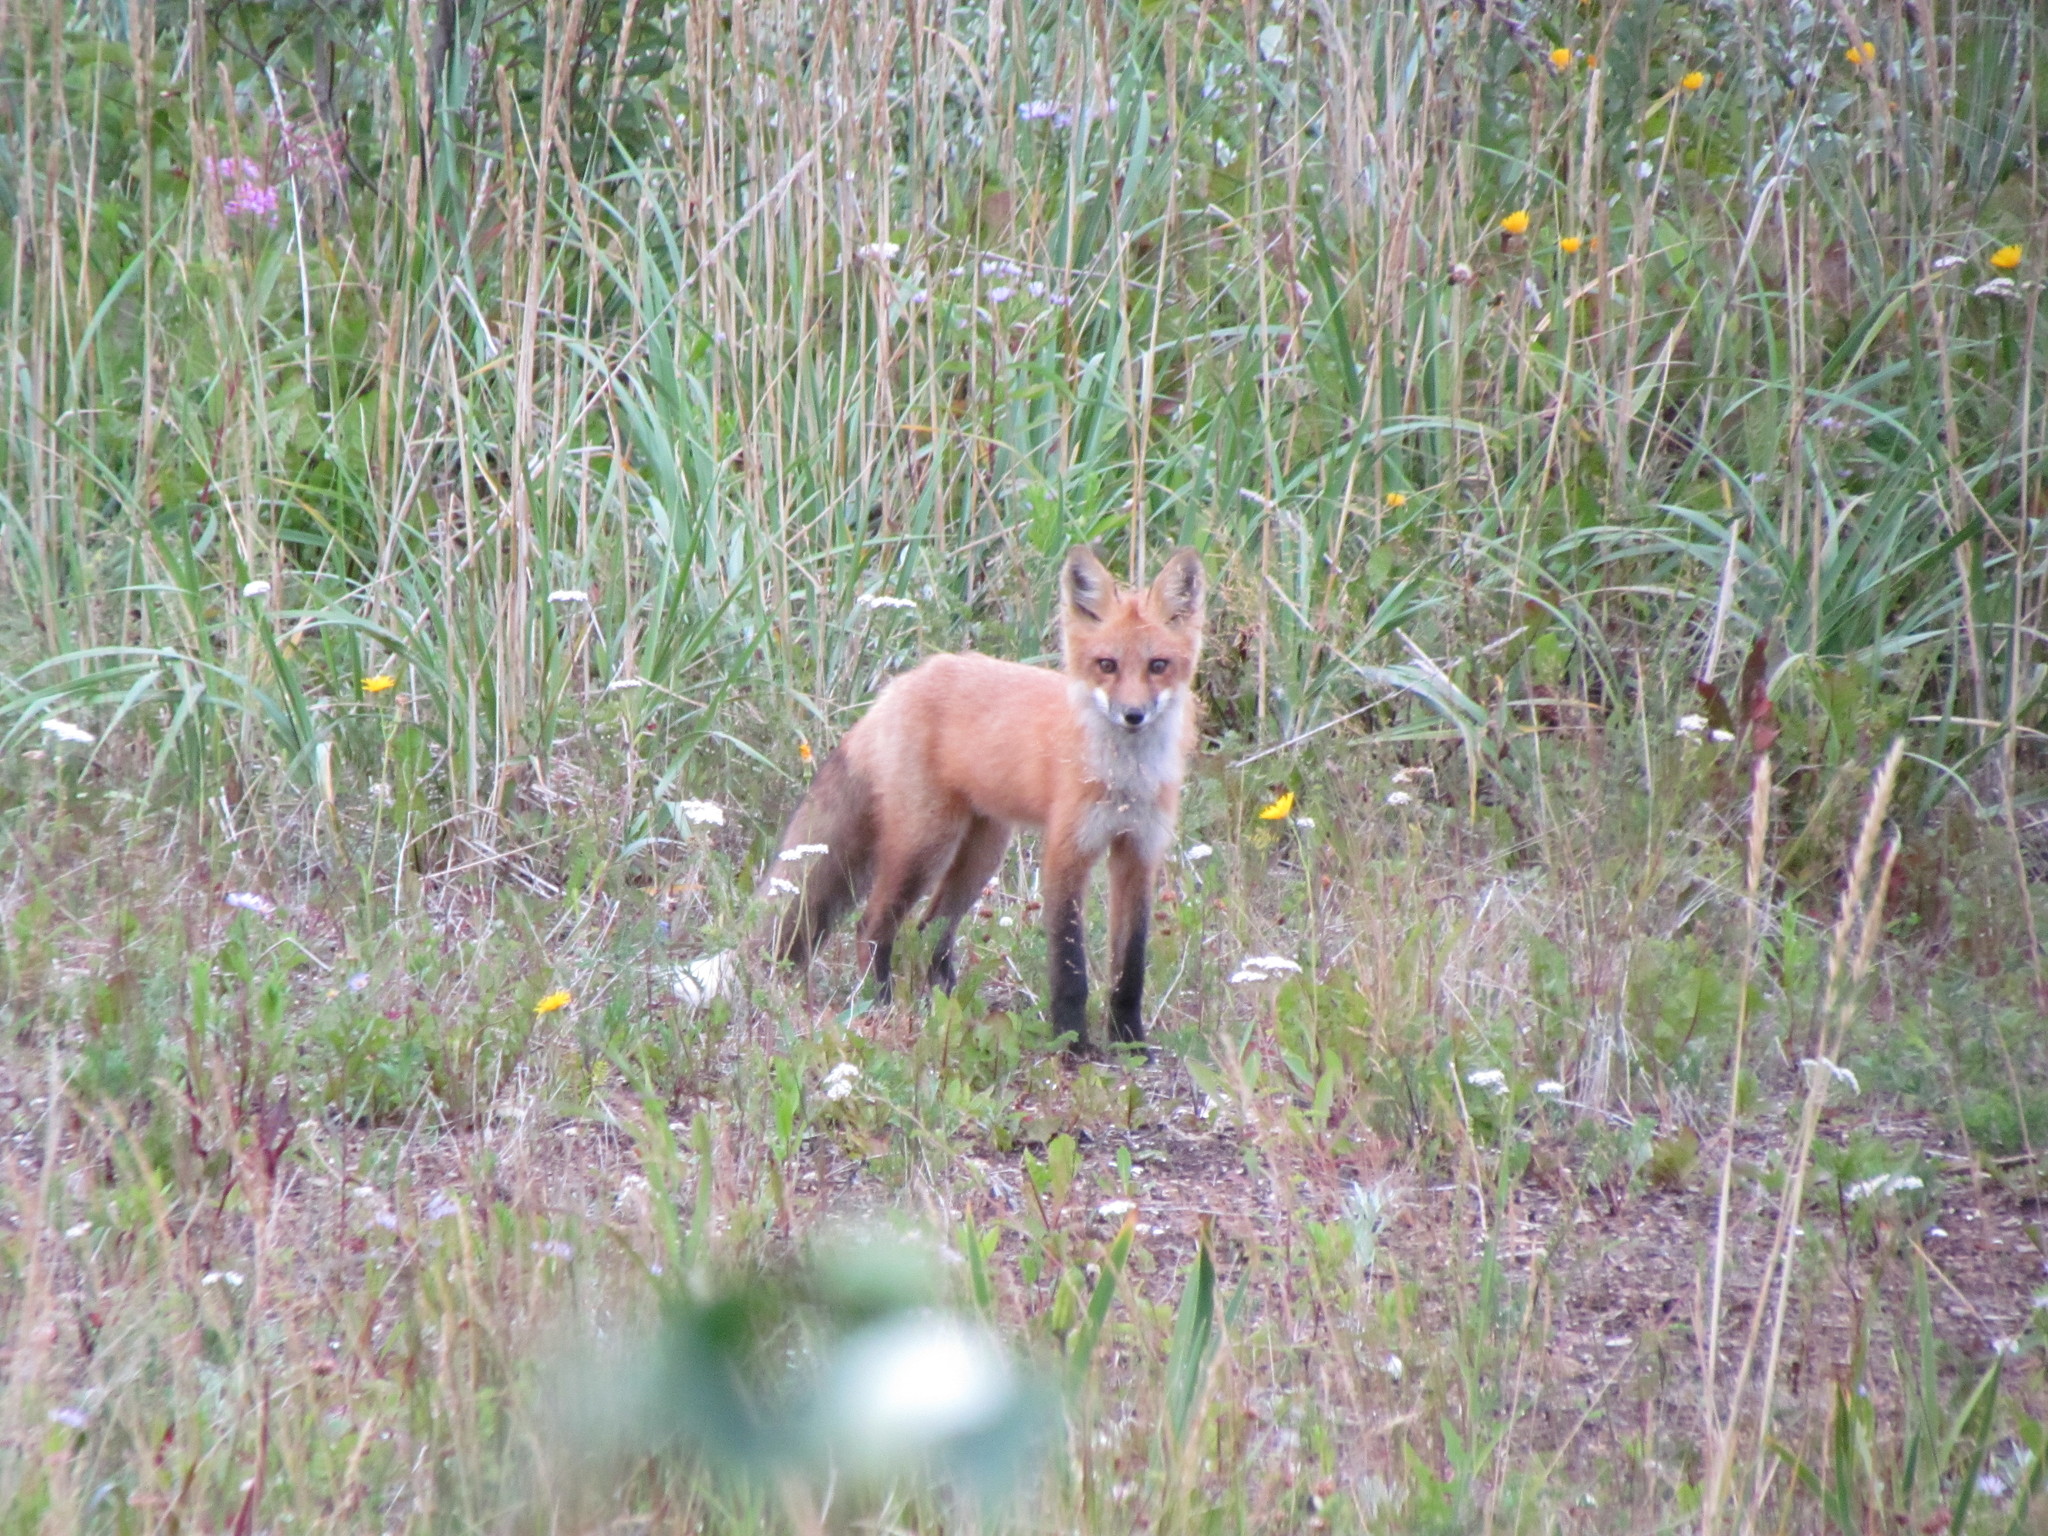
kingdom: Animalia
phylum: Chordata
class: Mammalia
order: Carnivora
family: Canidae
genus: Vulpes
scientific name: Vulpes vulpes
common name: Red fox
